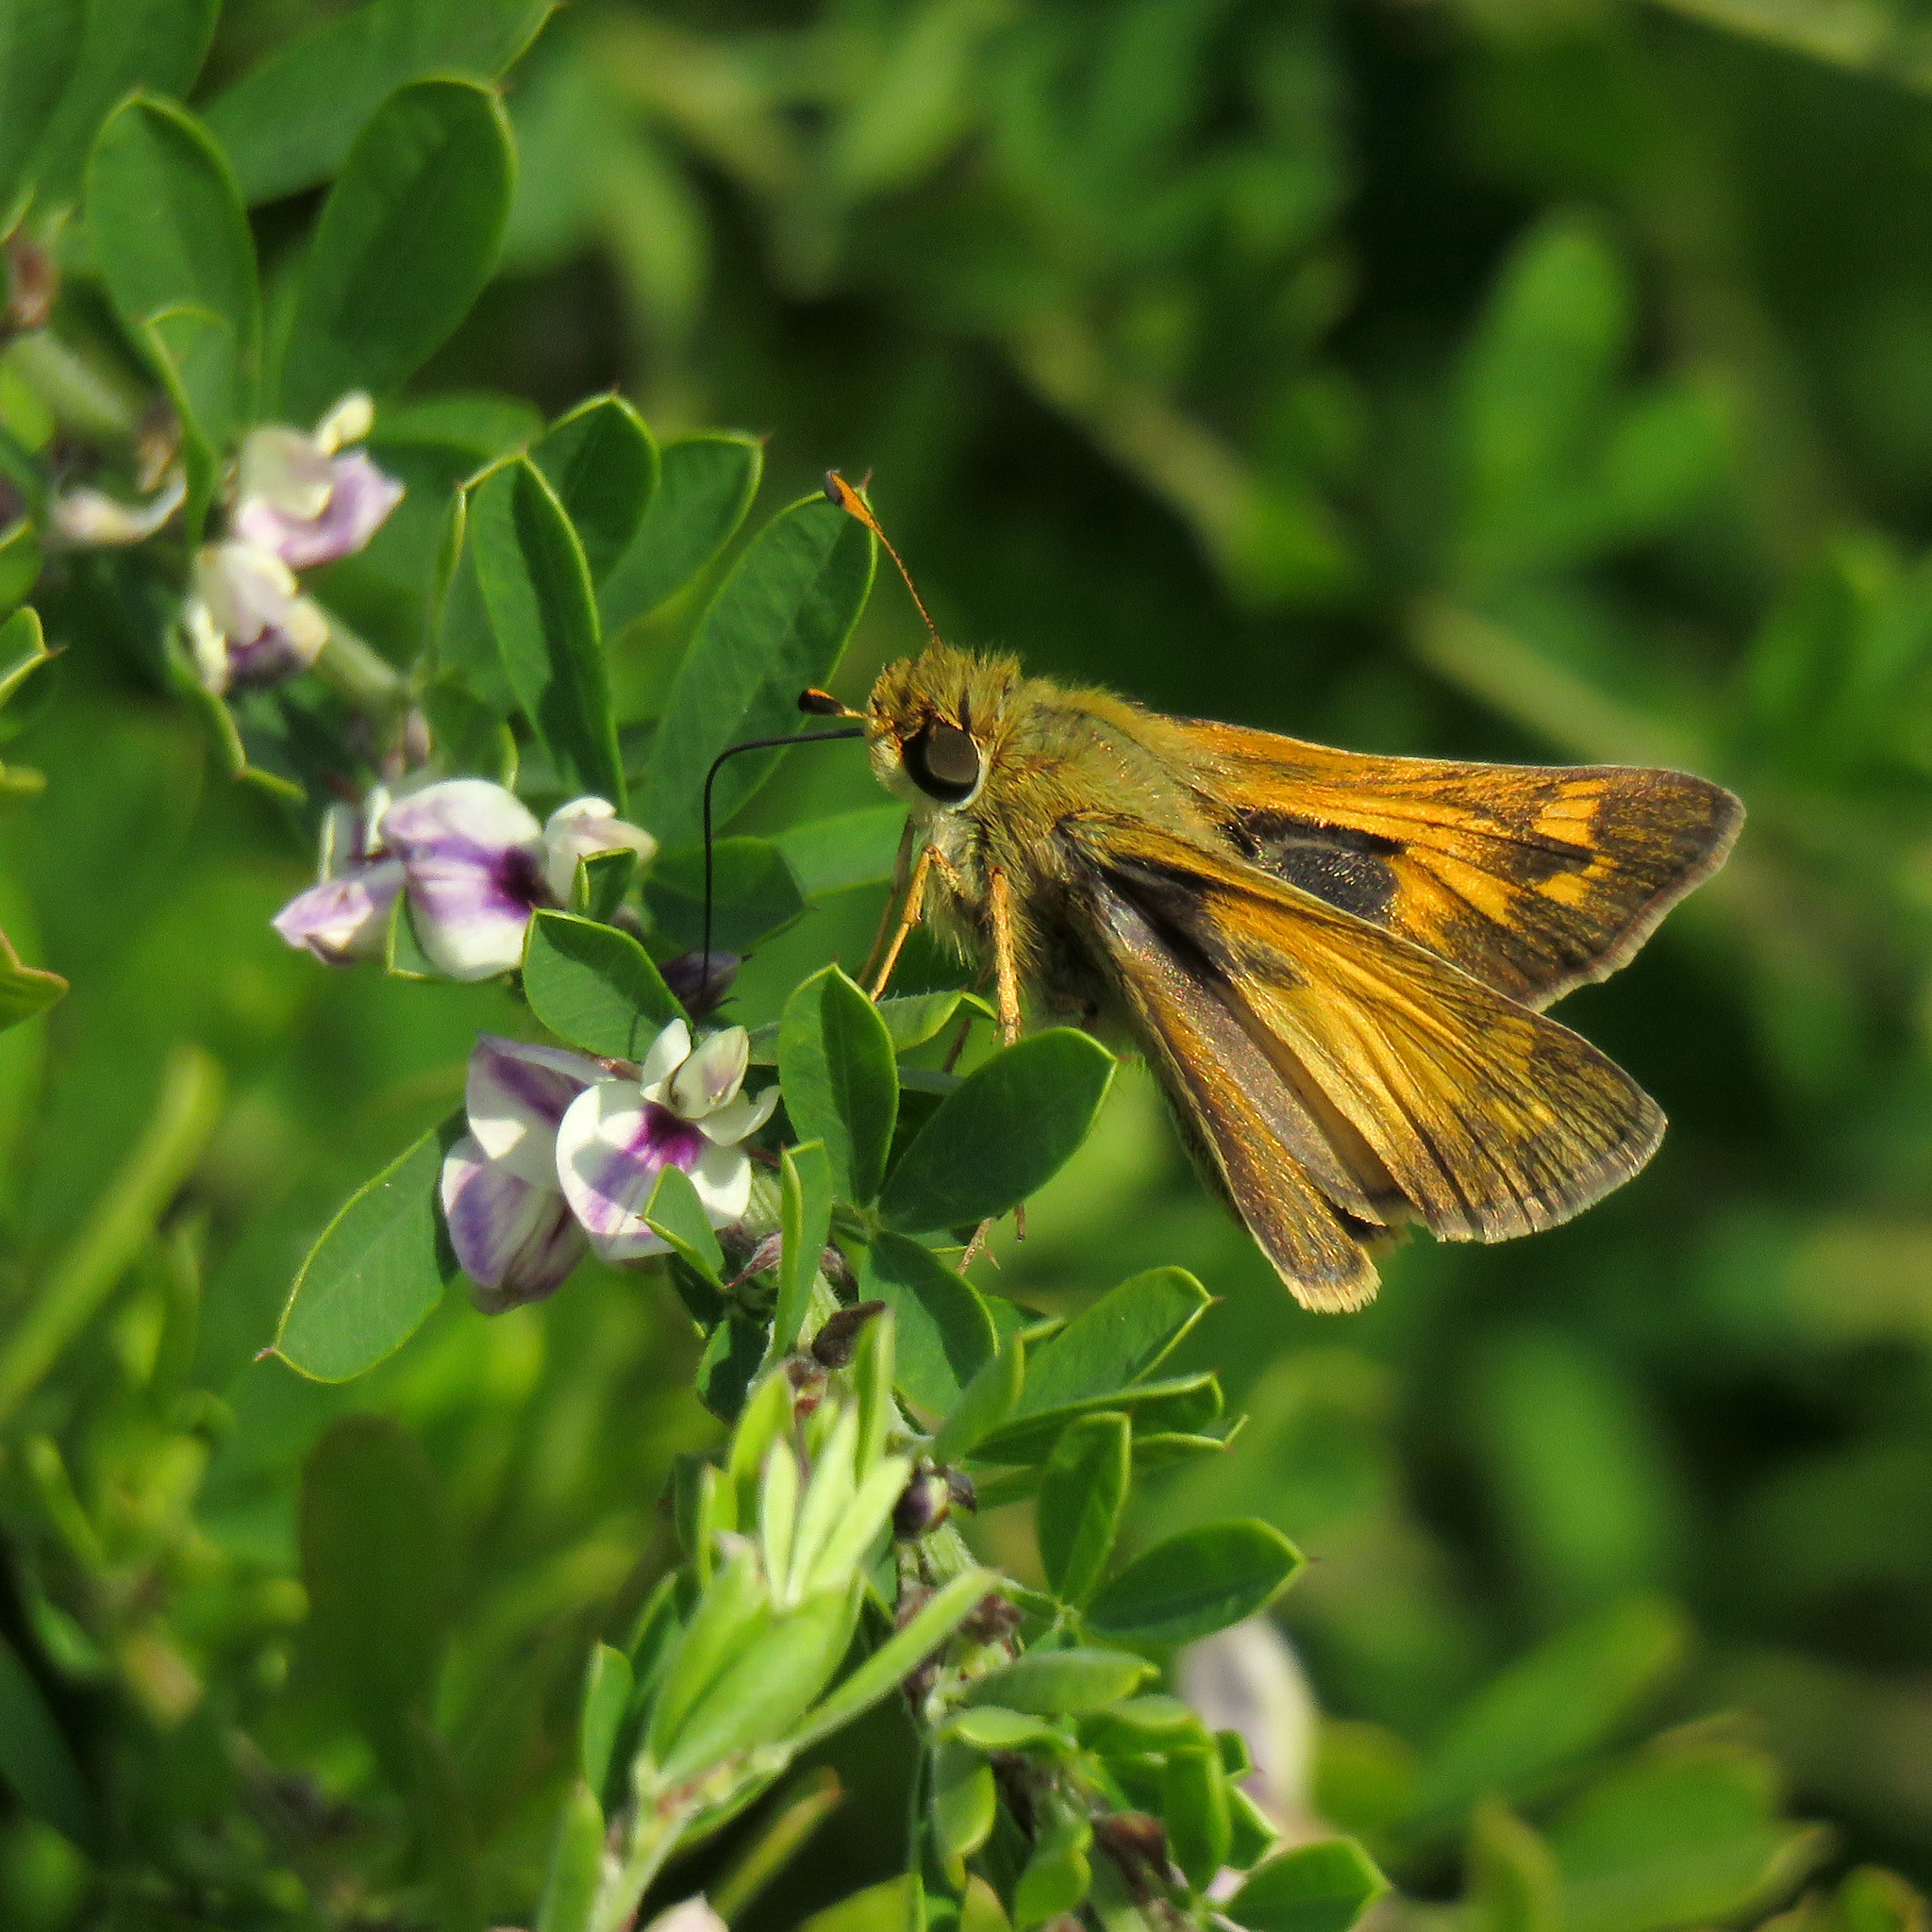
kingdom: Animalia
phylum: Arthropoda
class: Insecta
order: Lepidoptera
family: Hesperiidae
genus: Atalopedes
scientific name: Atalopedes
